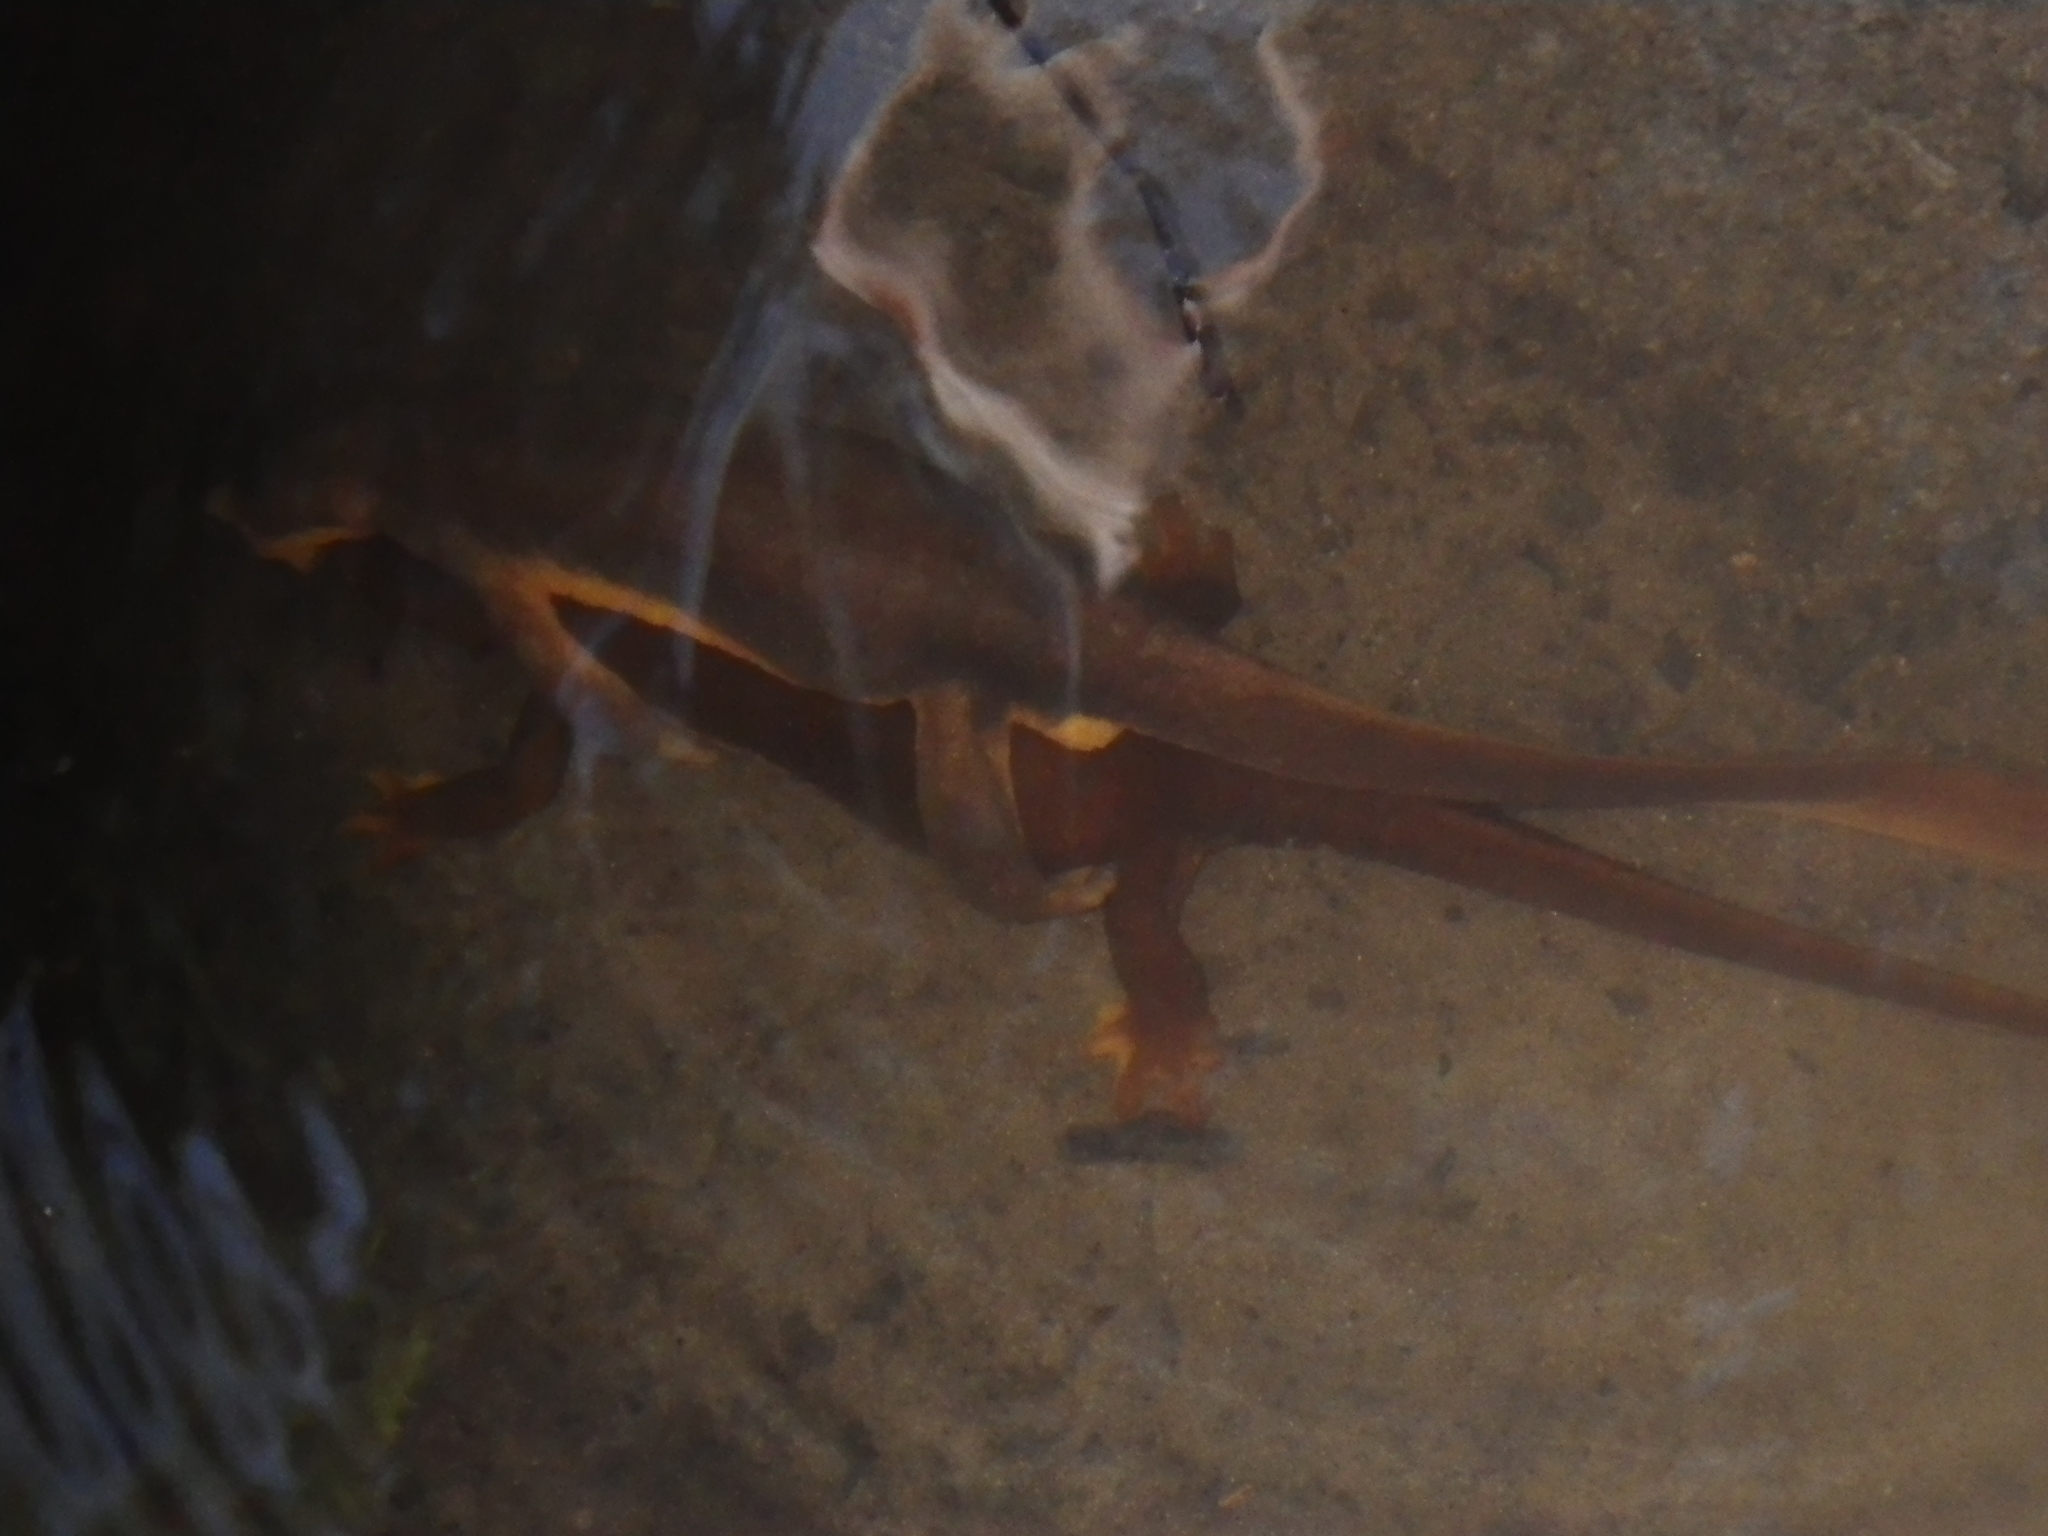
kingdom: Animalia
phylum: Chordata
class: Amphibia
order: Caudata
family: Salamandridae
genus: Taricha
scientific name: Taricha torosa
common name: California newt
